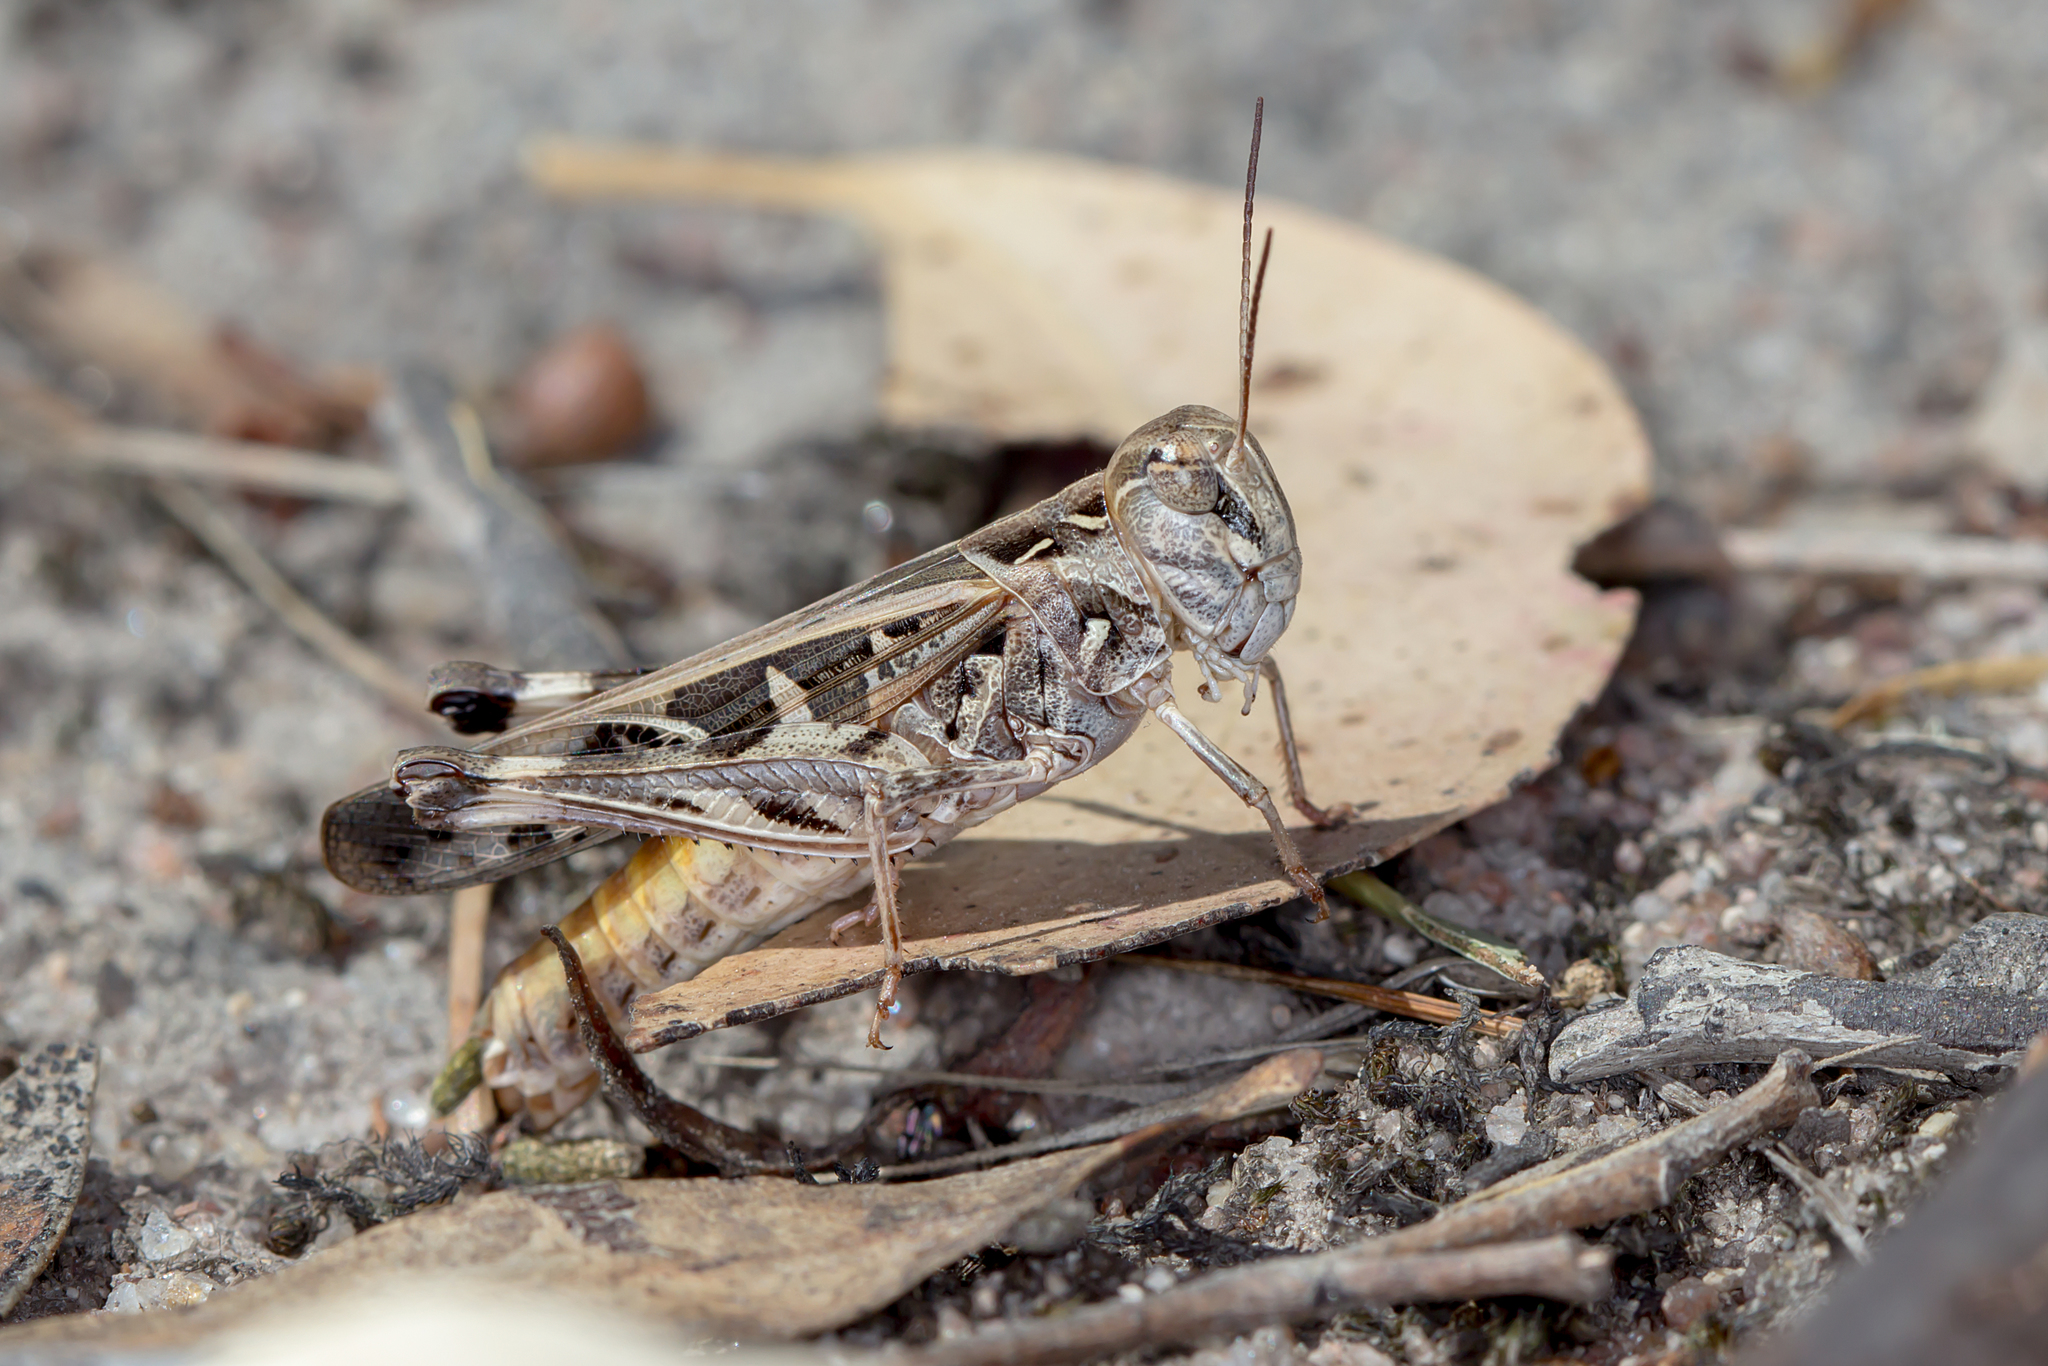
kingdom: Animalia
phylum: Arthropoda
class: Insecta
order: Orthoptera
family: Acrididae
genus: Oedaleus
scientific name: Oedaleus australis
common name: Eastern oedaleus
